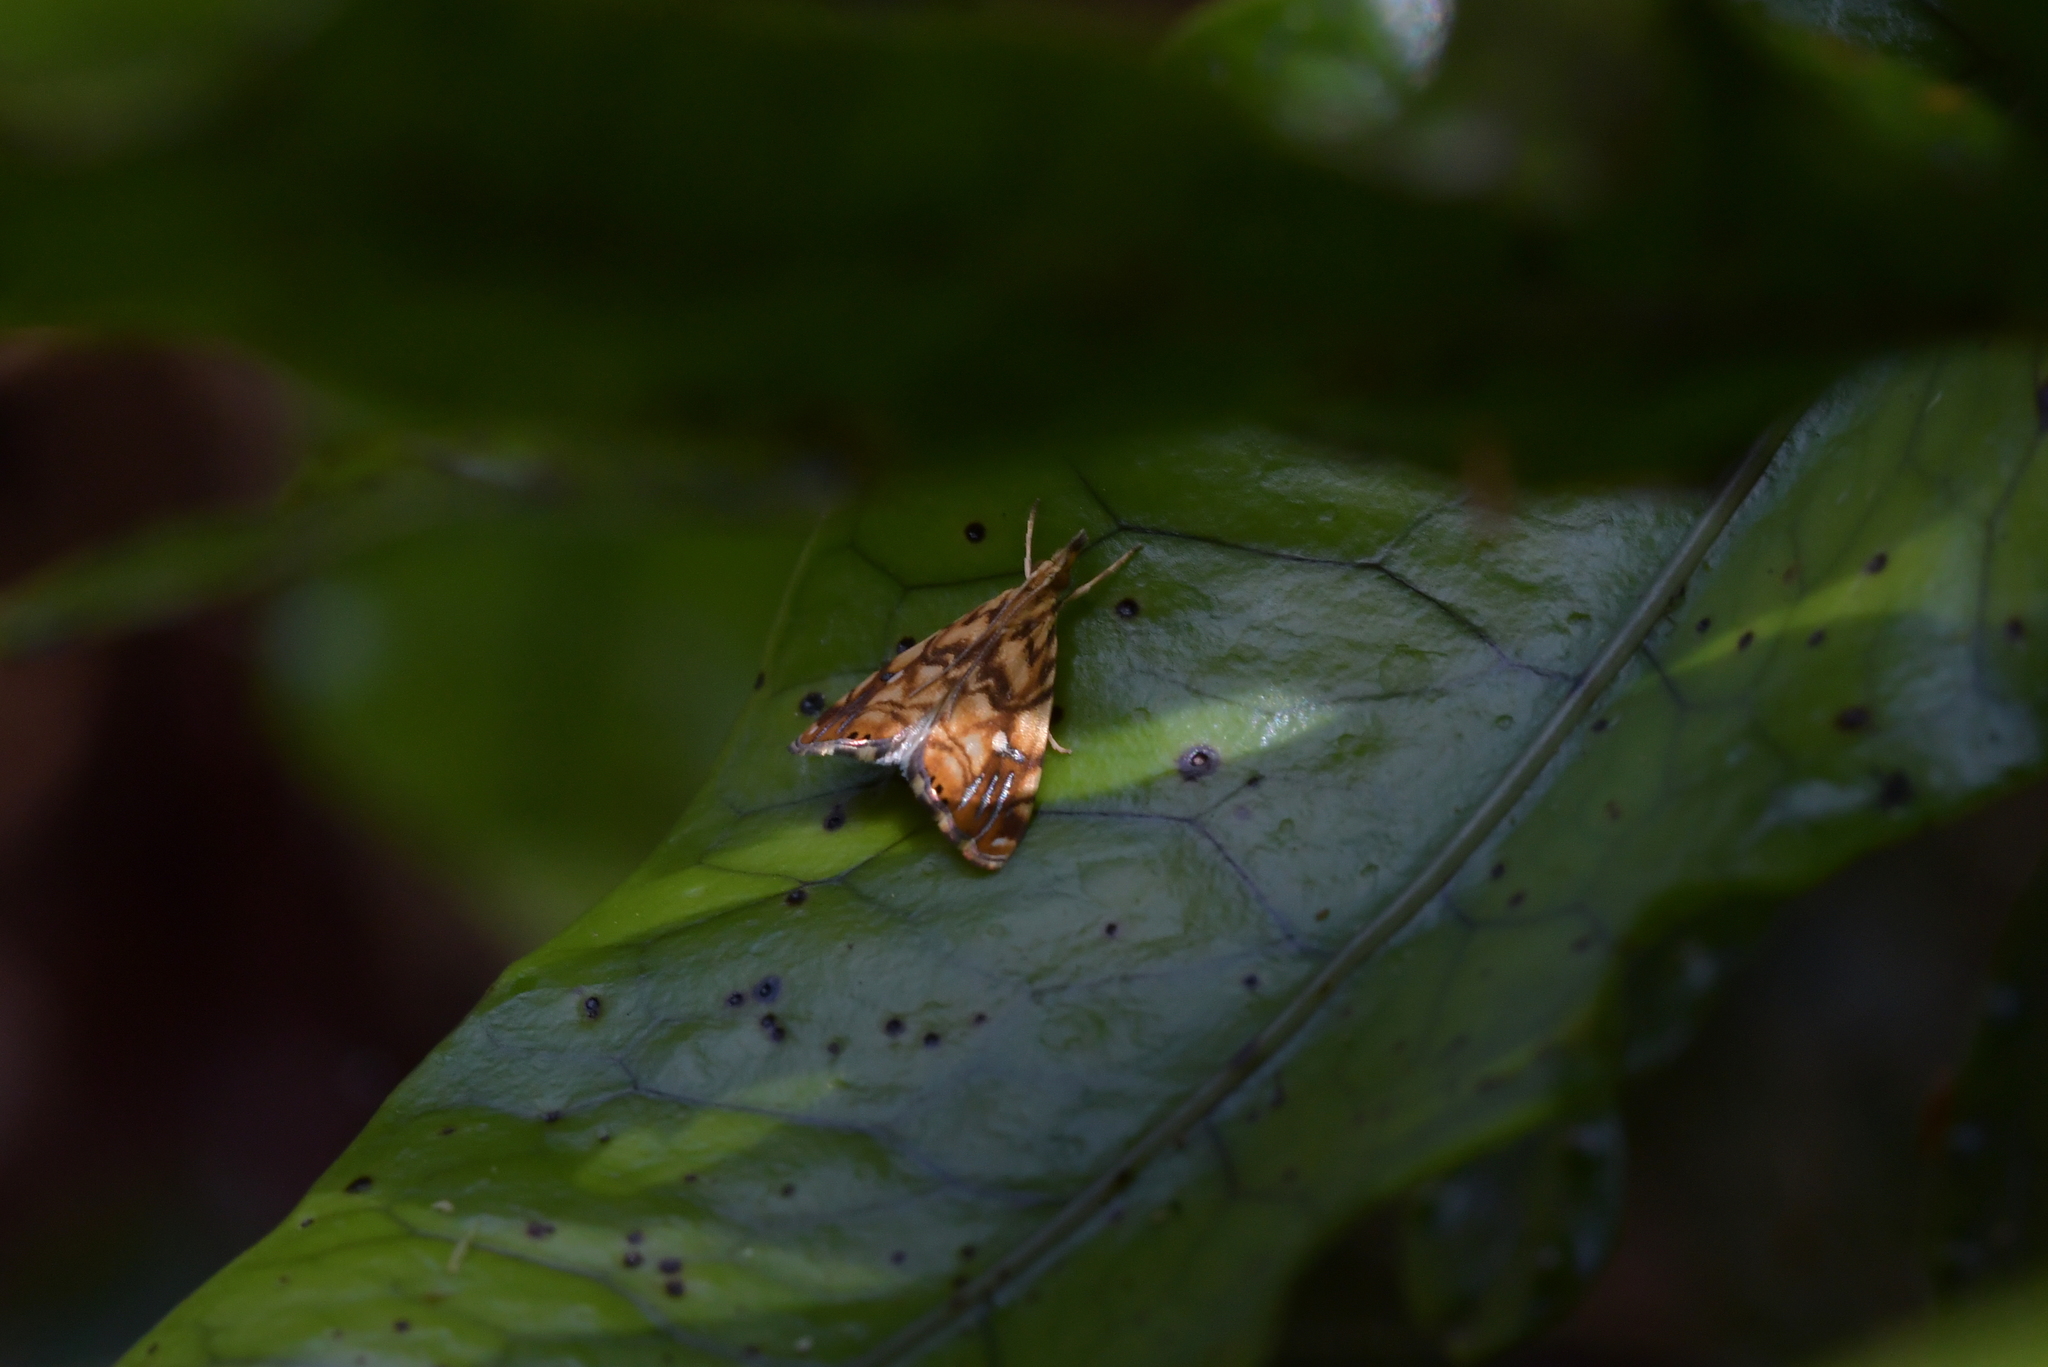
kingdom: Animalia
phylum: Arthropoda
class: Insecta
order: Lepidoptera
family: Crambidae
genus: Glaucocharis
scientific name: Glaucocharis selenaea
